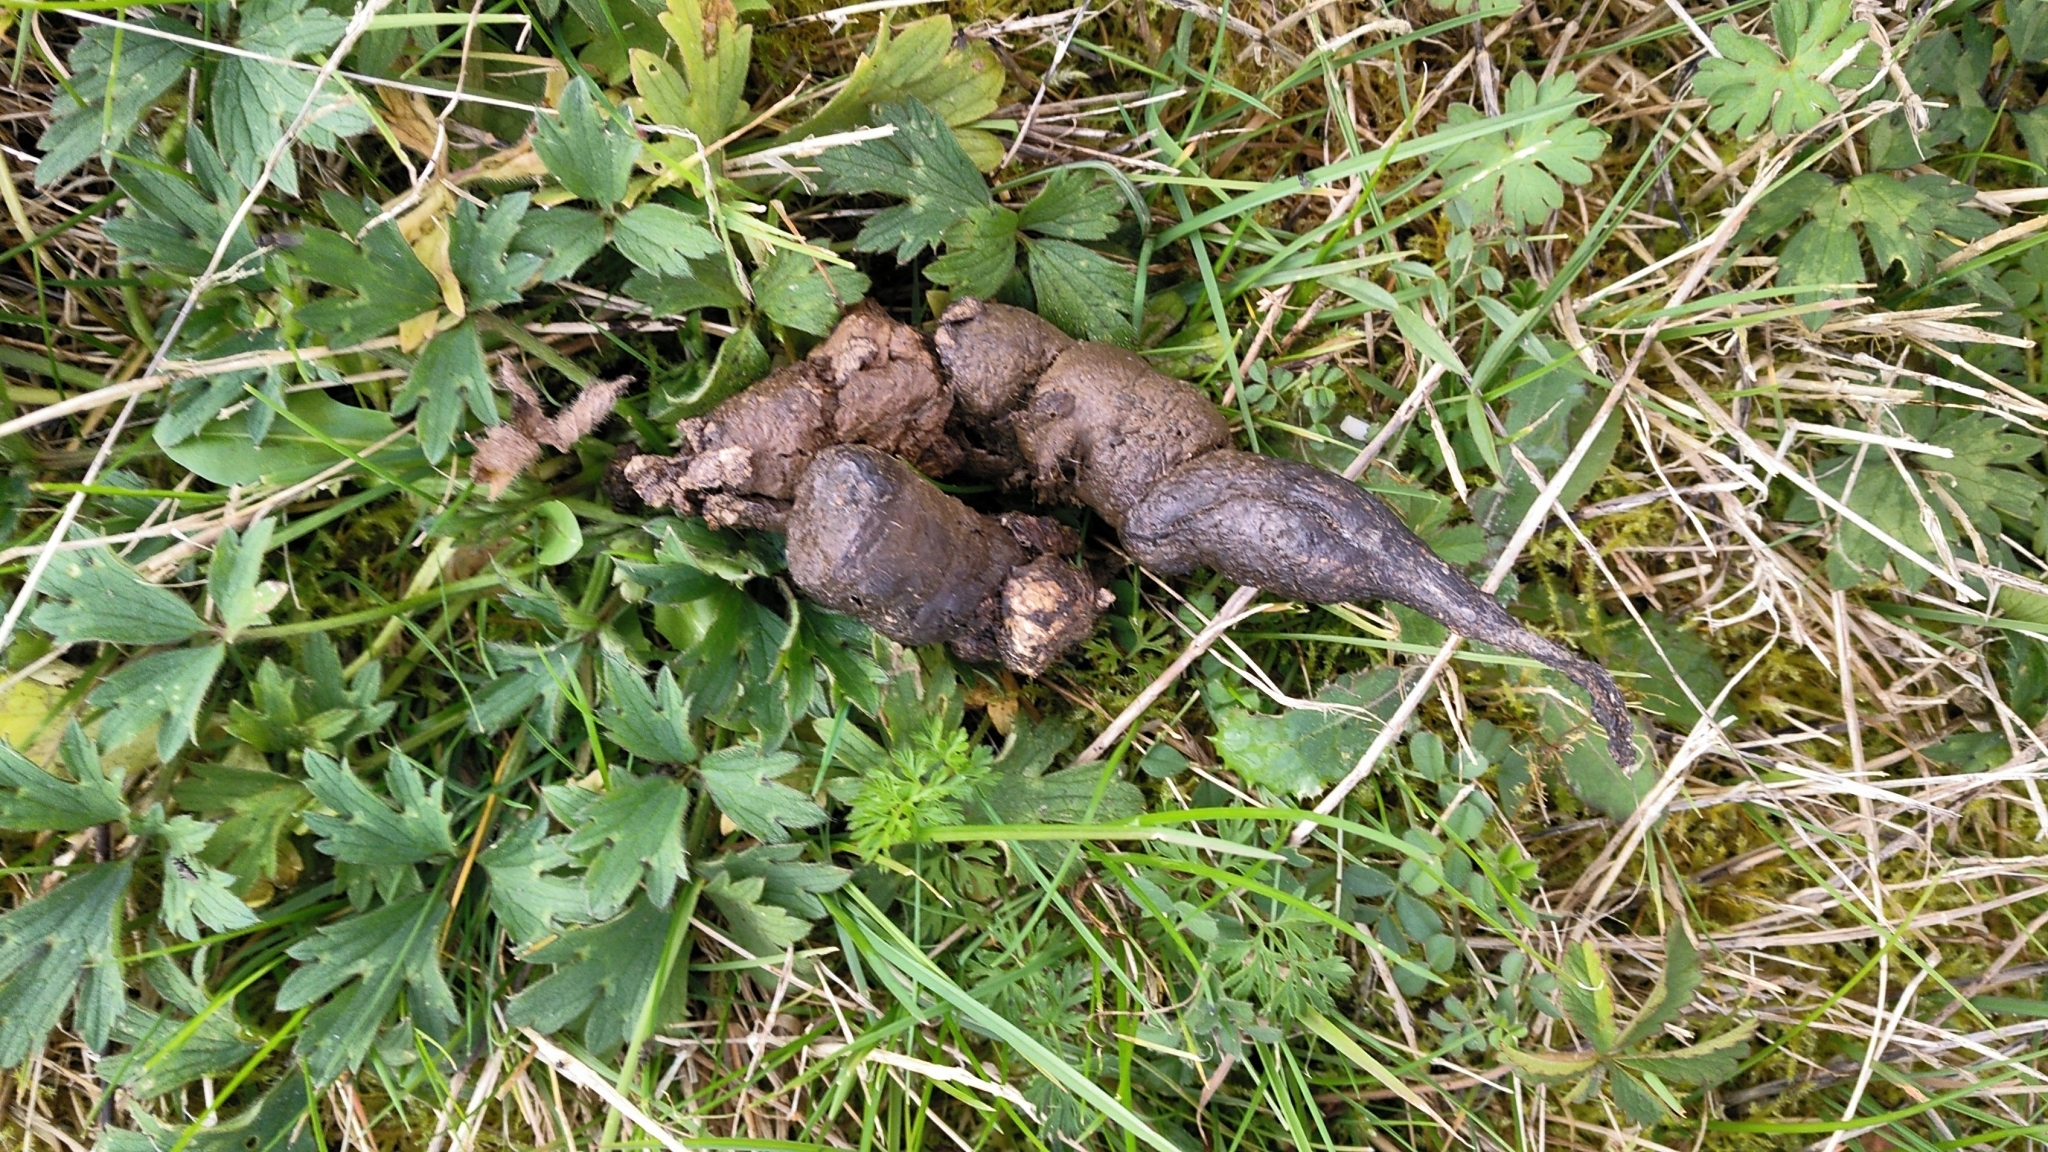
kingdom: Animalia
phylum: Chordata
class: Mammalia
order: Carnivora
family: Mustelidae
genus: Martes
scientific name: Martes foina
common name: Beech marten
